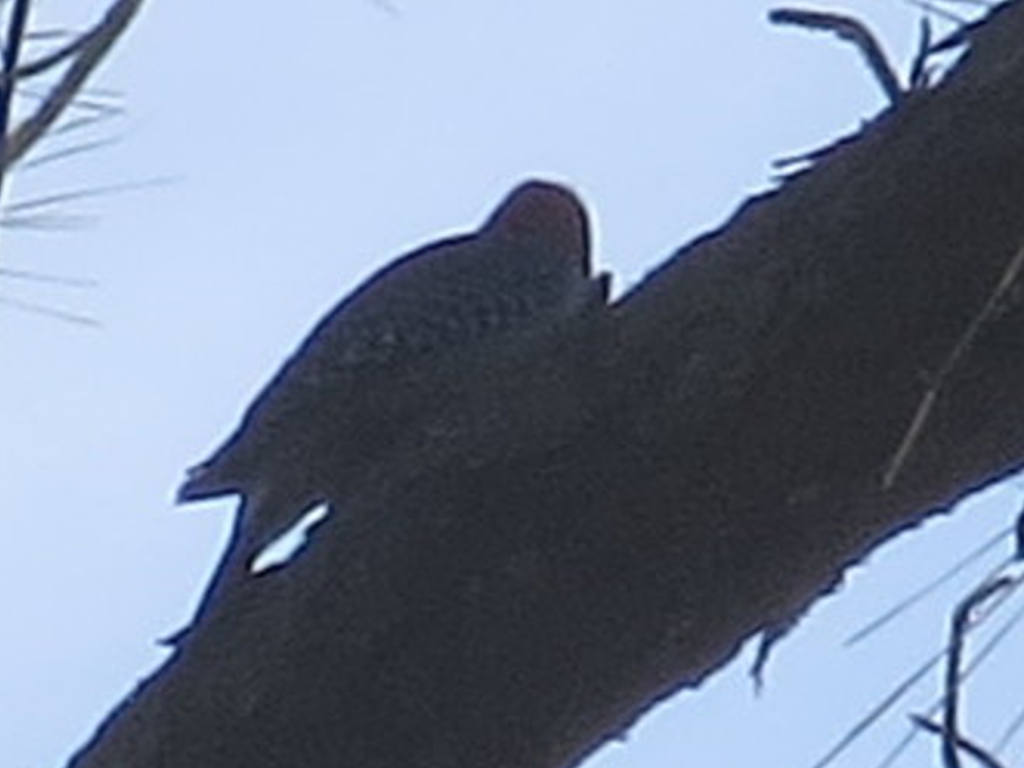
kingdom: Animalia
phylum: Chordata
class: Aves
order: Piciformes
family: Picidae
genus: Melanerpes
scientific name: Melanerpes carolinus
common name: Red-bellied woodpecker
